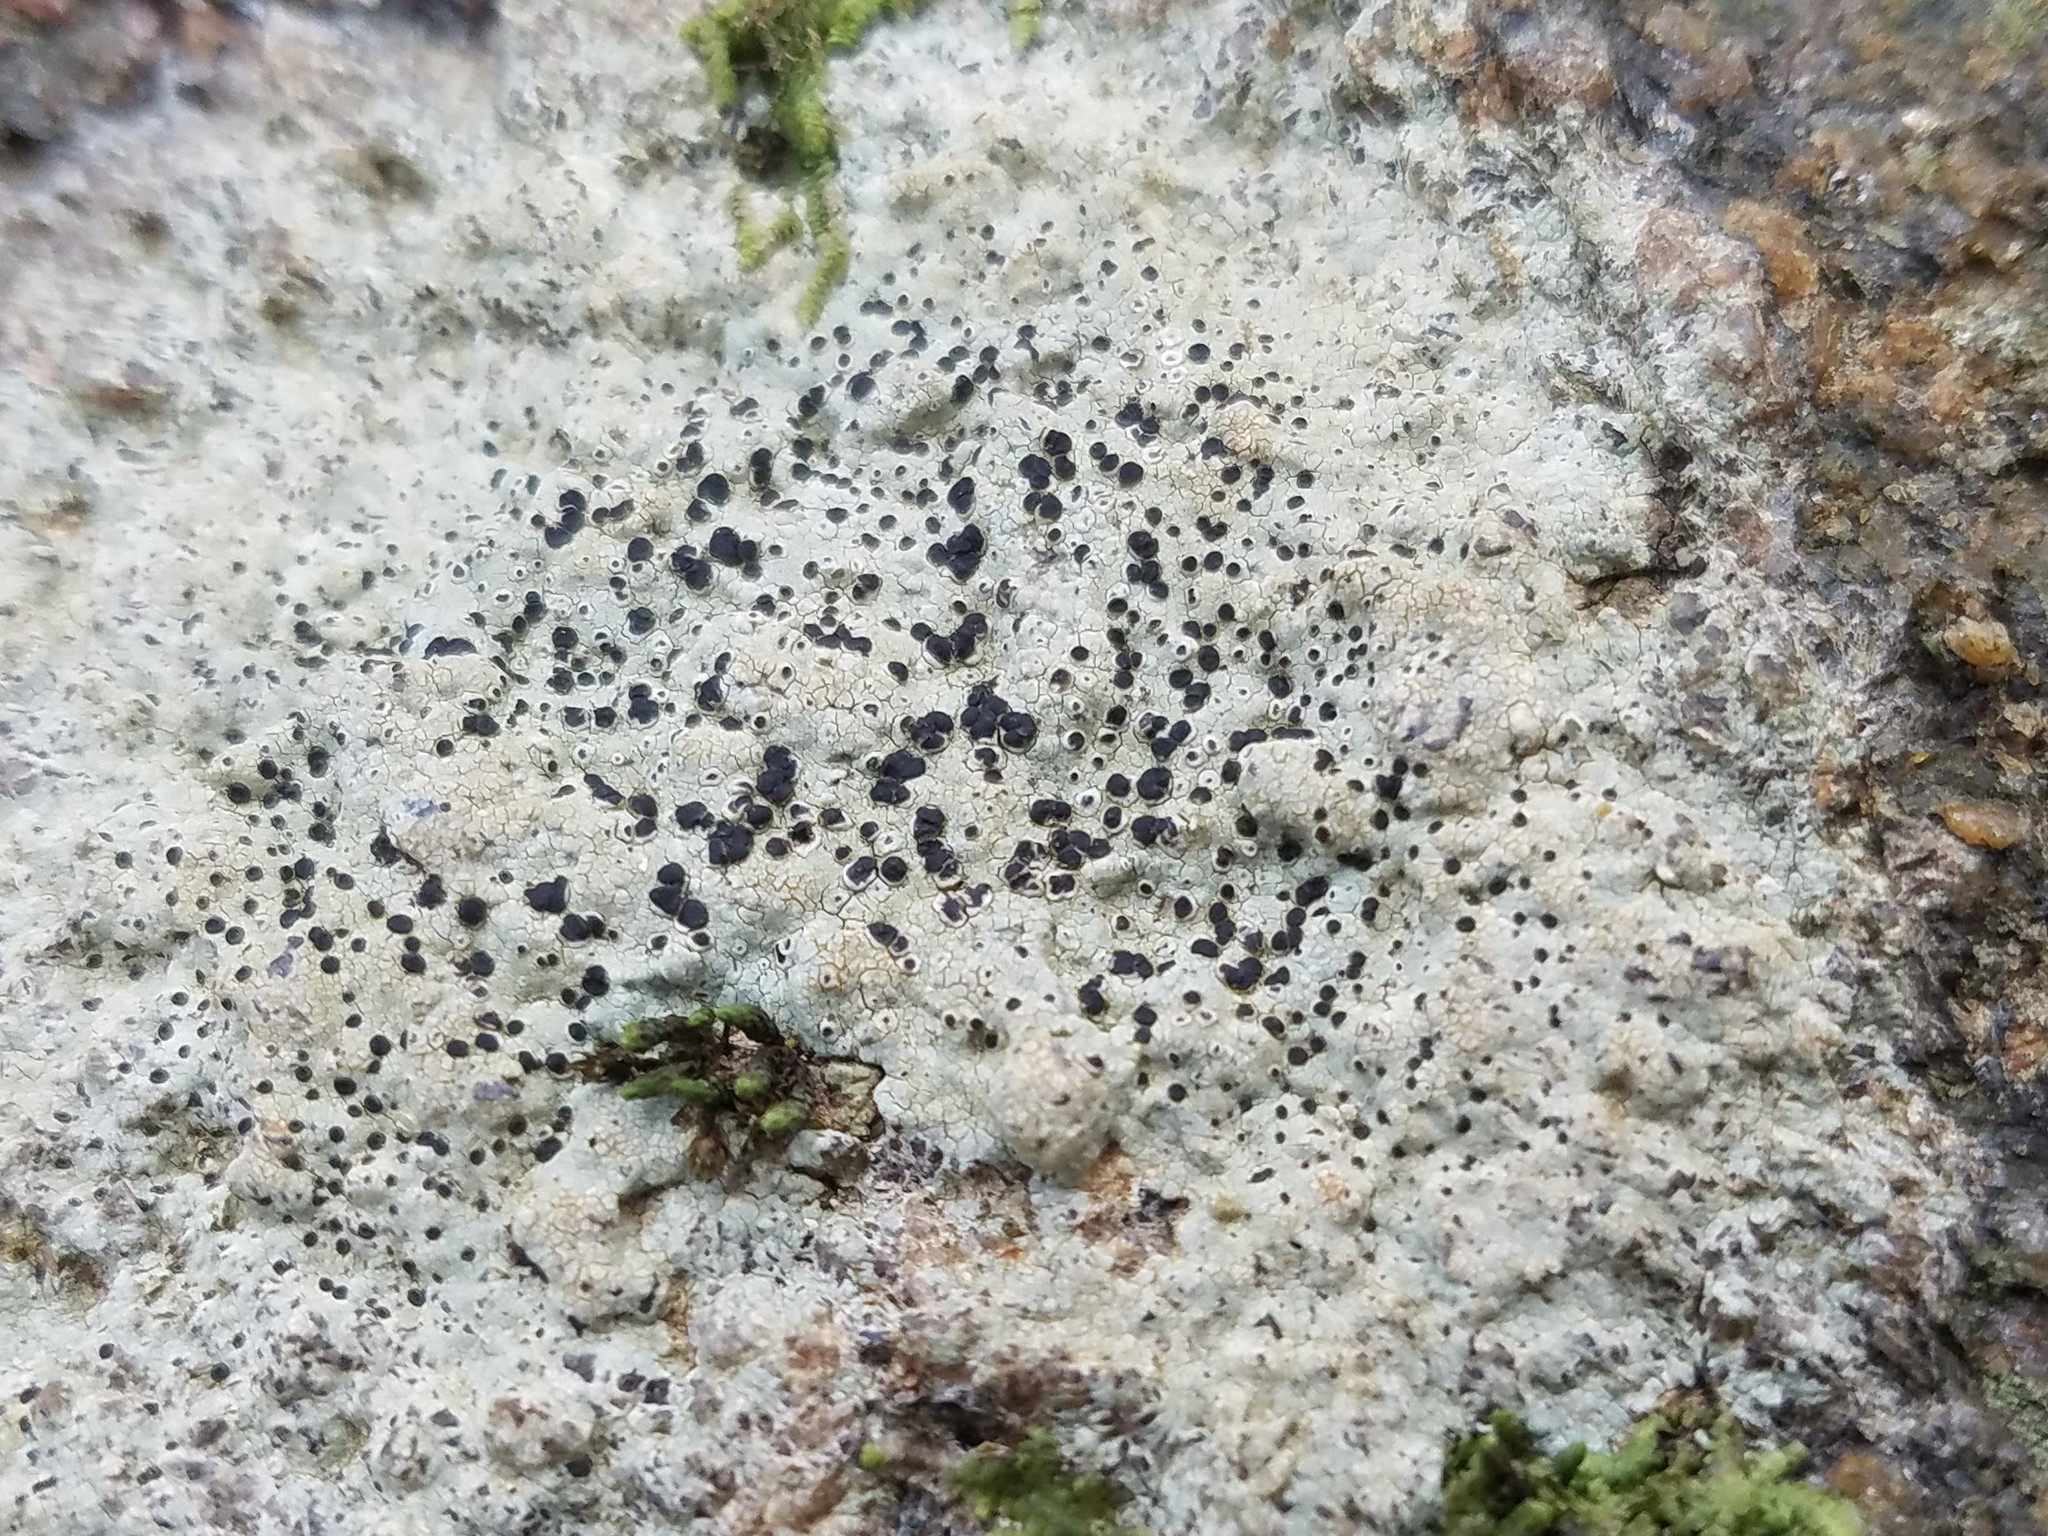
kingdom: Fungi
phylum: Ascomycota
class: Lecanoromycetes
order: Caliciales
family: Caliciaceae
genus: Buellia
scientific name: Buellia mamillana
